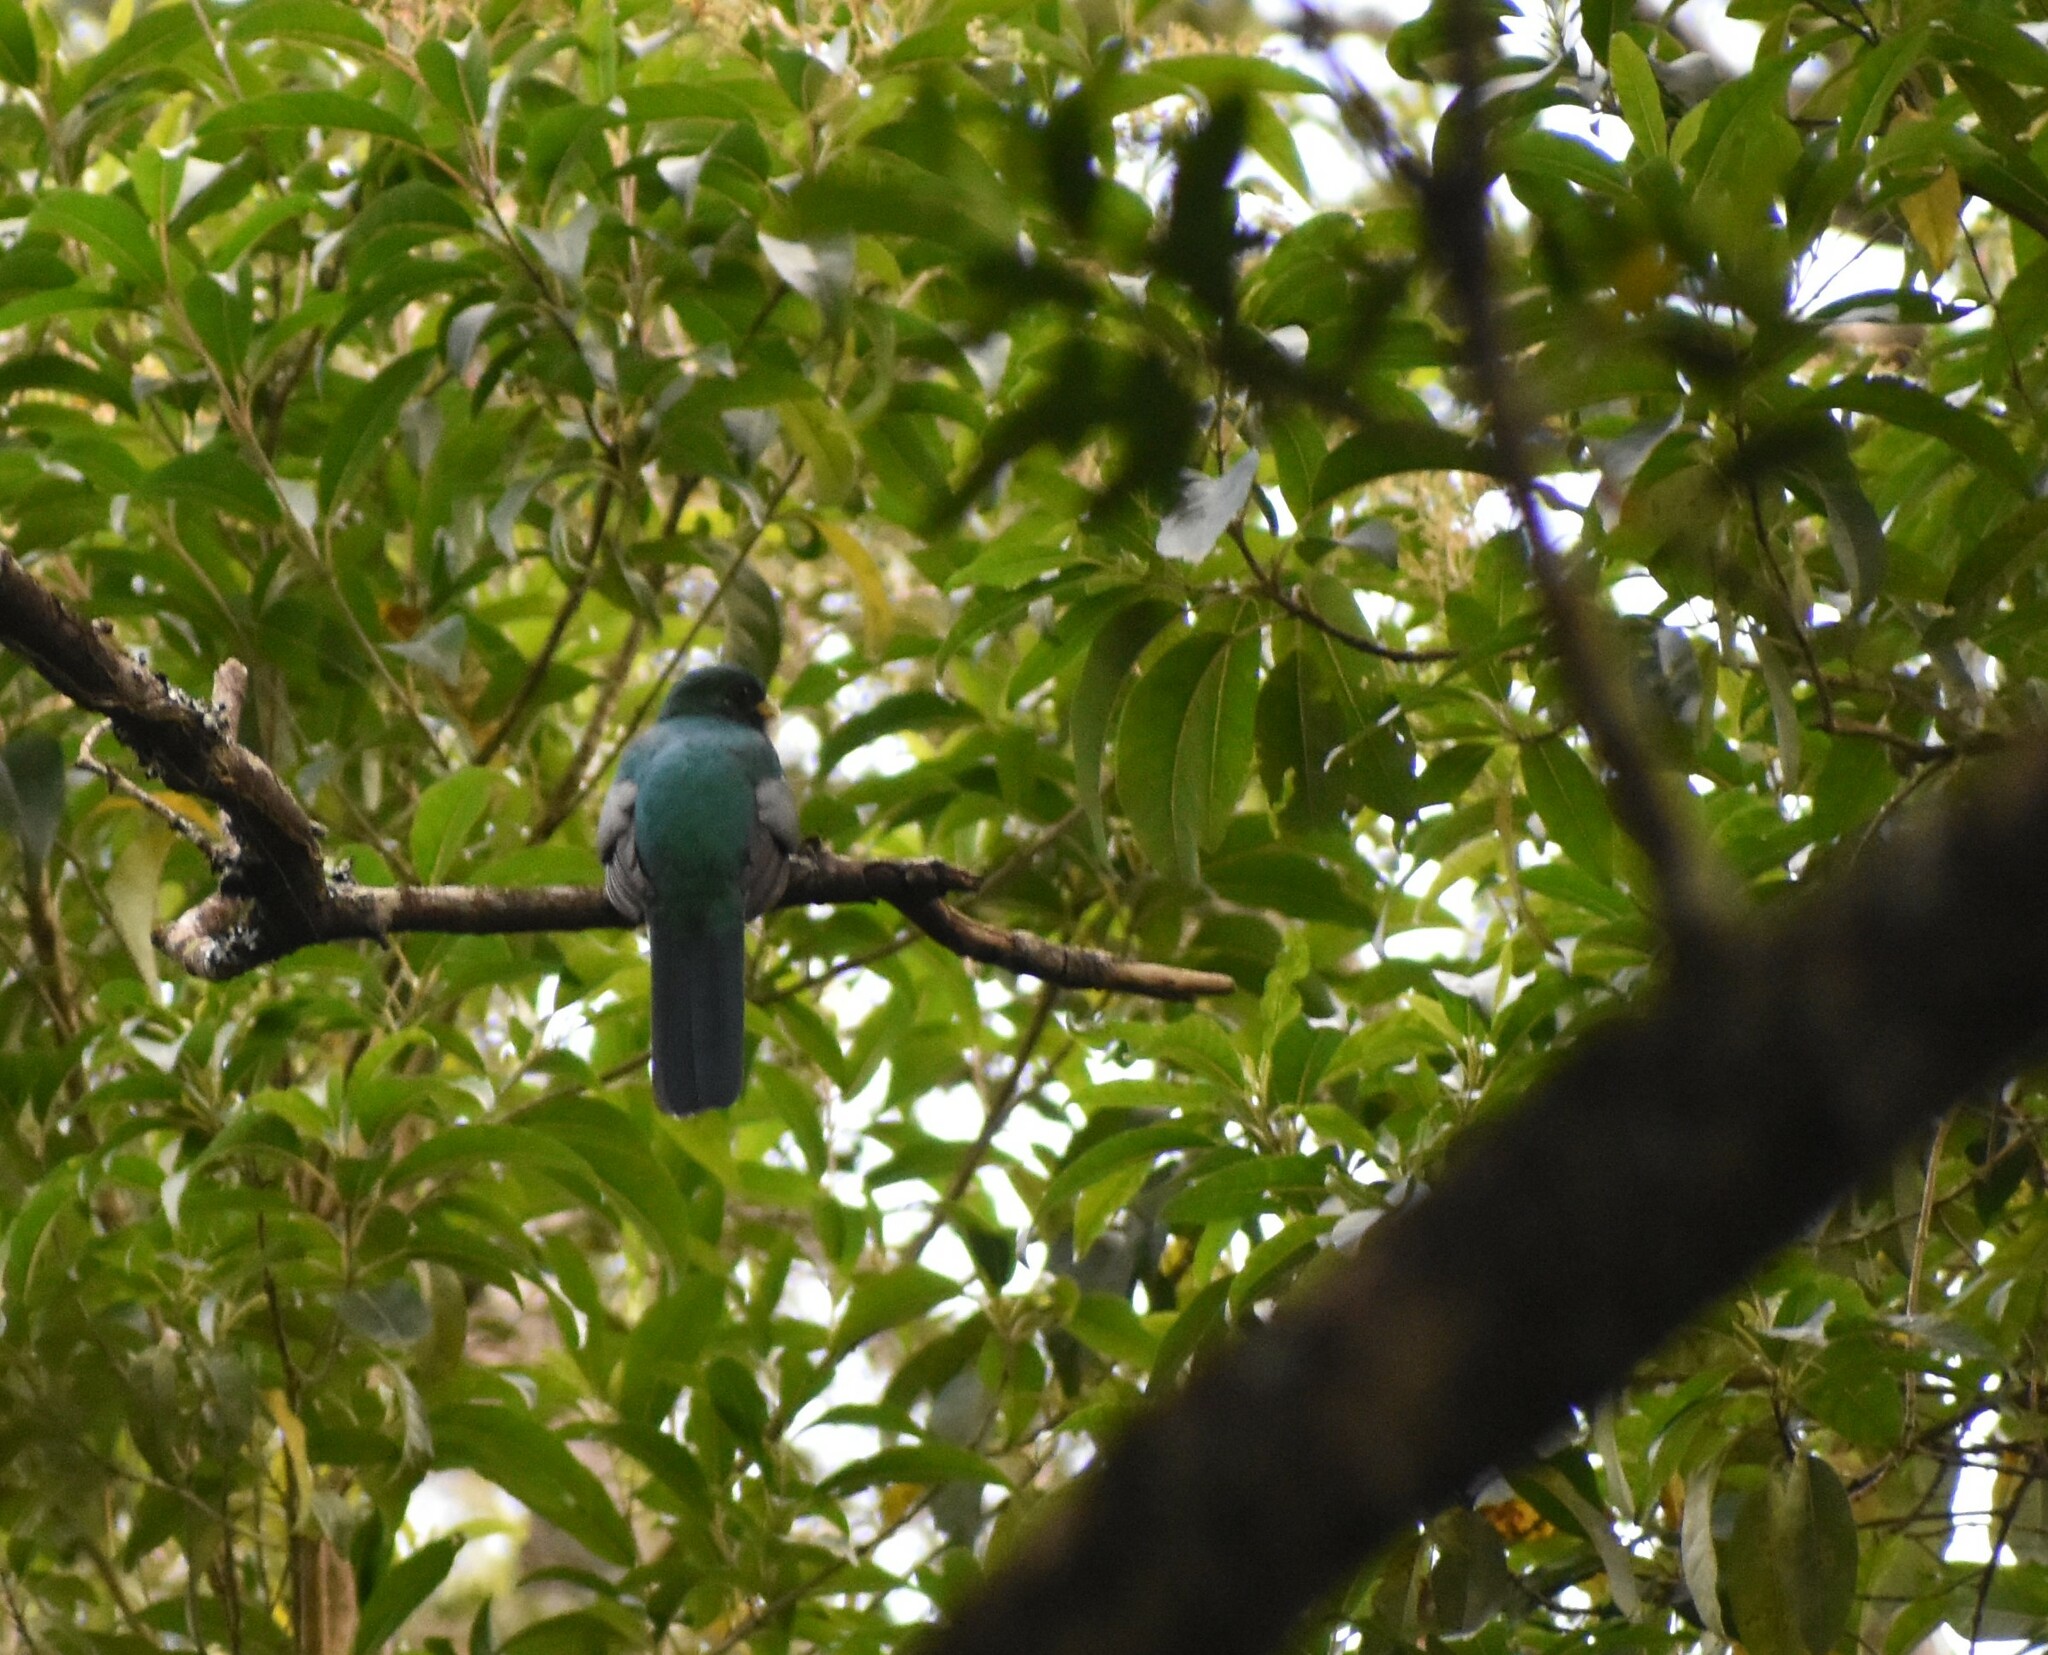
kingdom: Animalia
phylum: Chordata
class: Aves
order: Trogoniformes
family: Trogonidae
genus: Apaloderma
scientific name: Apaloderma narina
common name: Narina trogon
